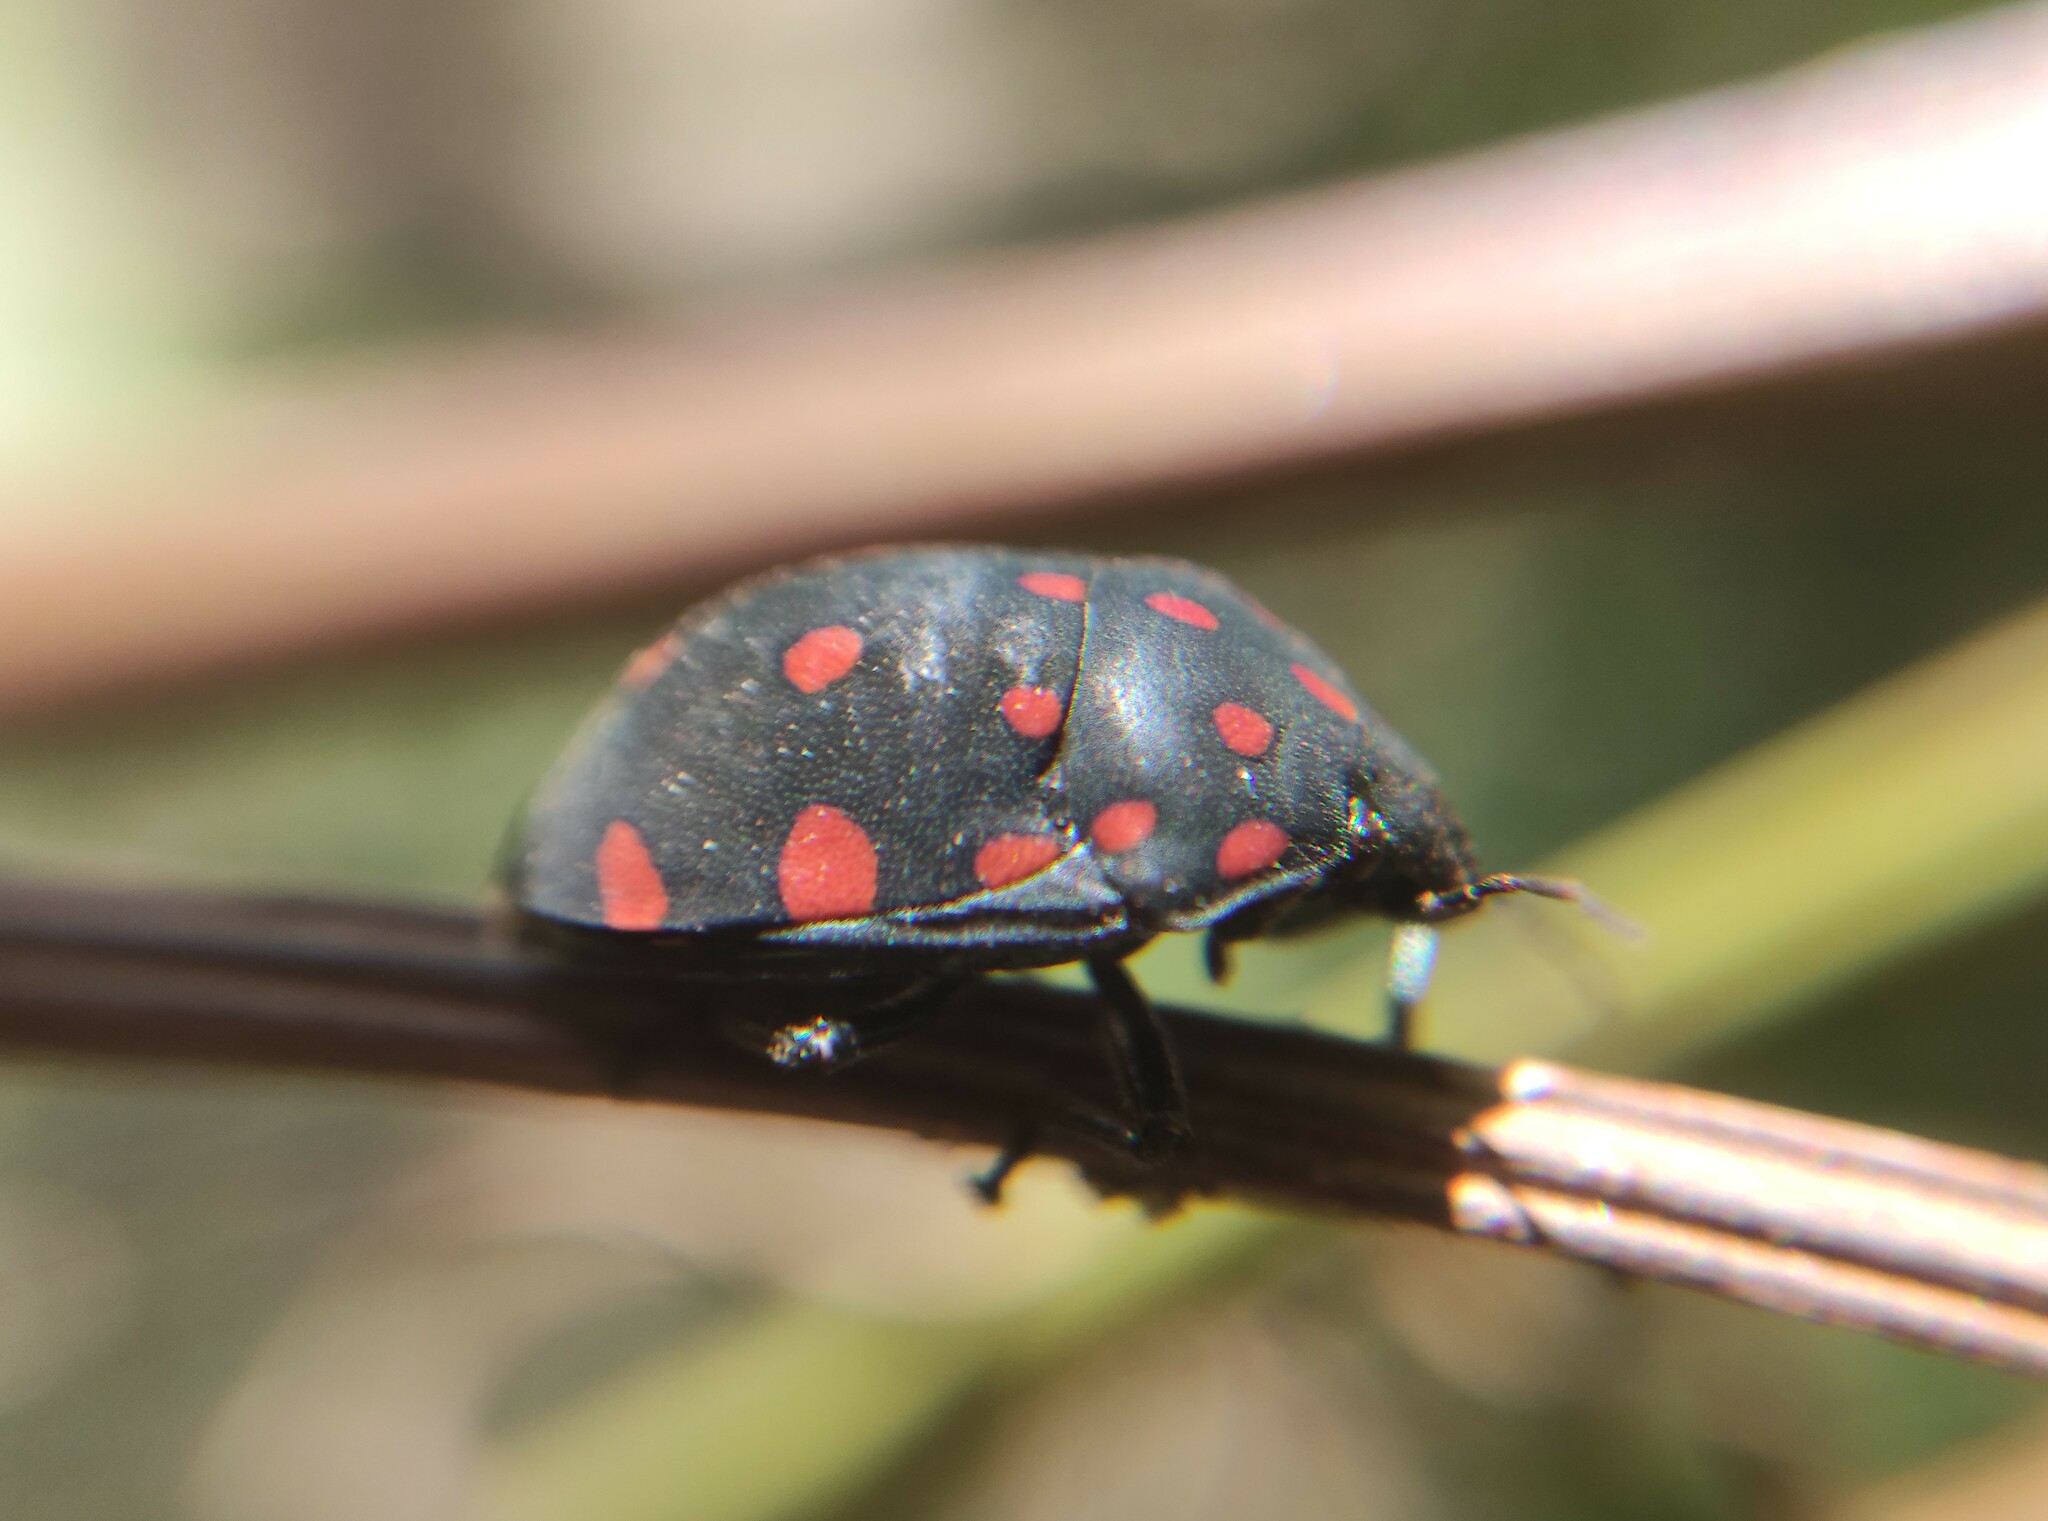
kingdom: Animalia
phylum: Arthropoda
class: Insecta
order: Hemiptera
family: Scutelleridae
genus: Pachycoris
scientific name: Pachycoris torridus
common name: Torrid jewel bug
